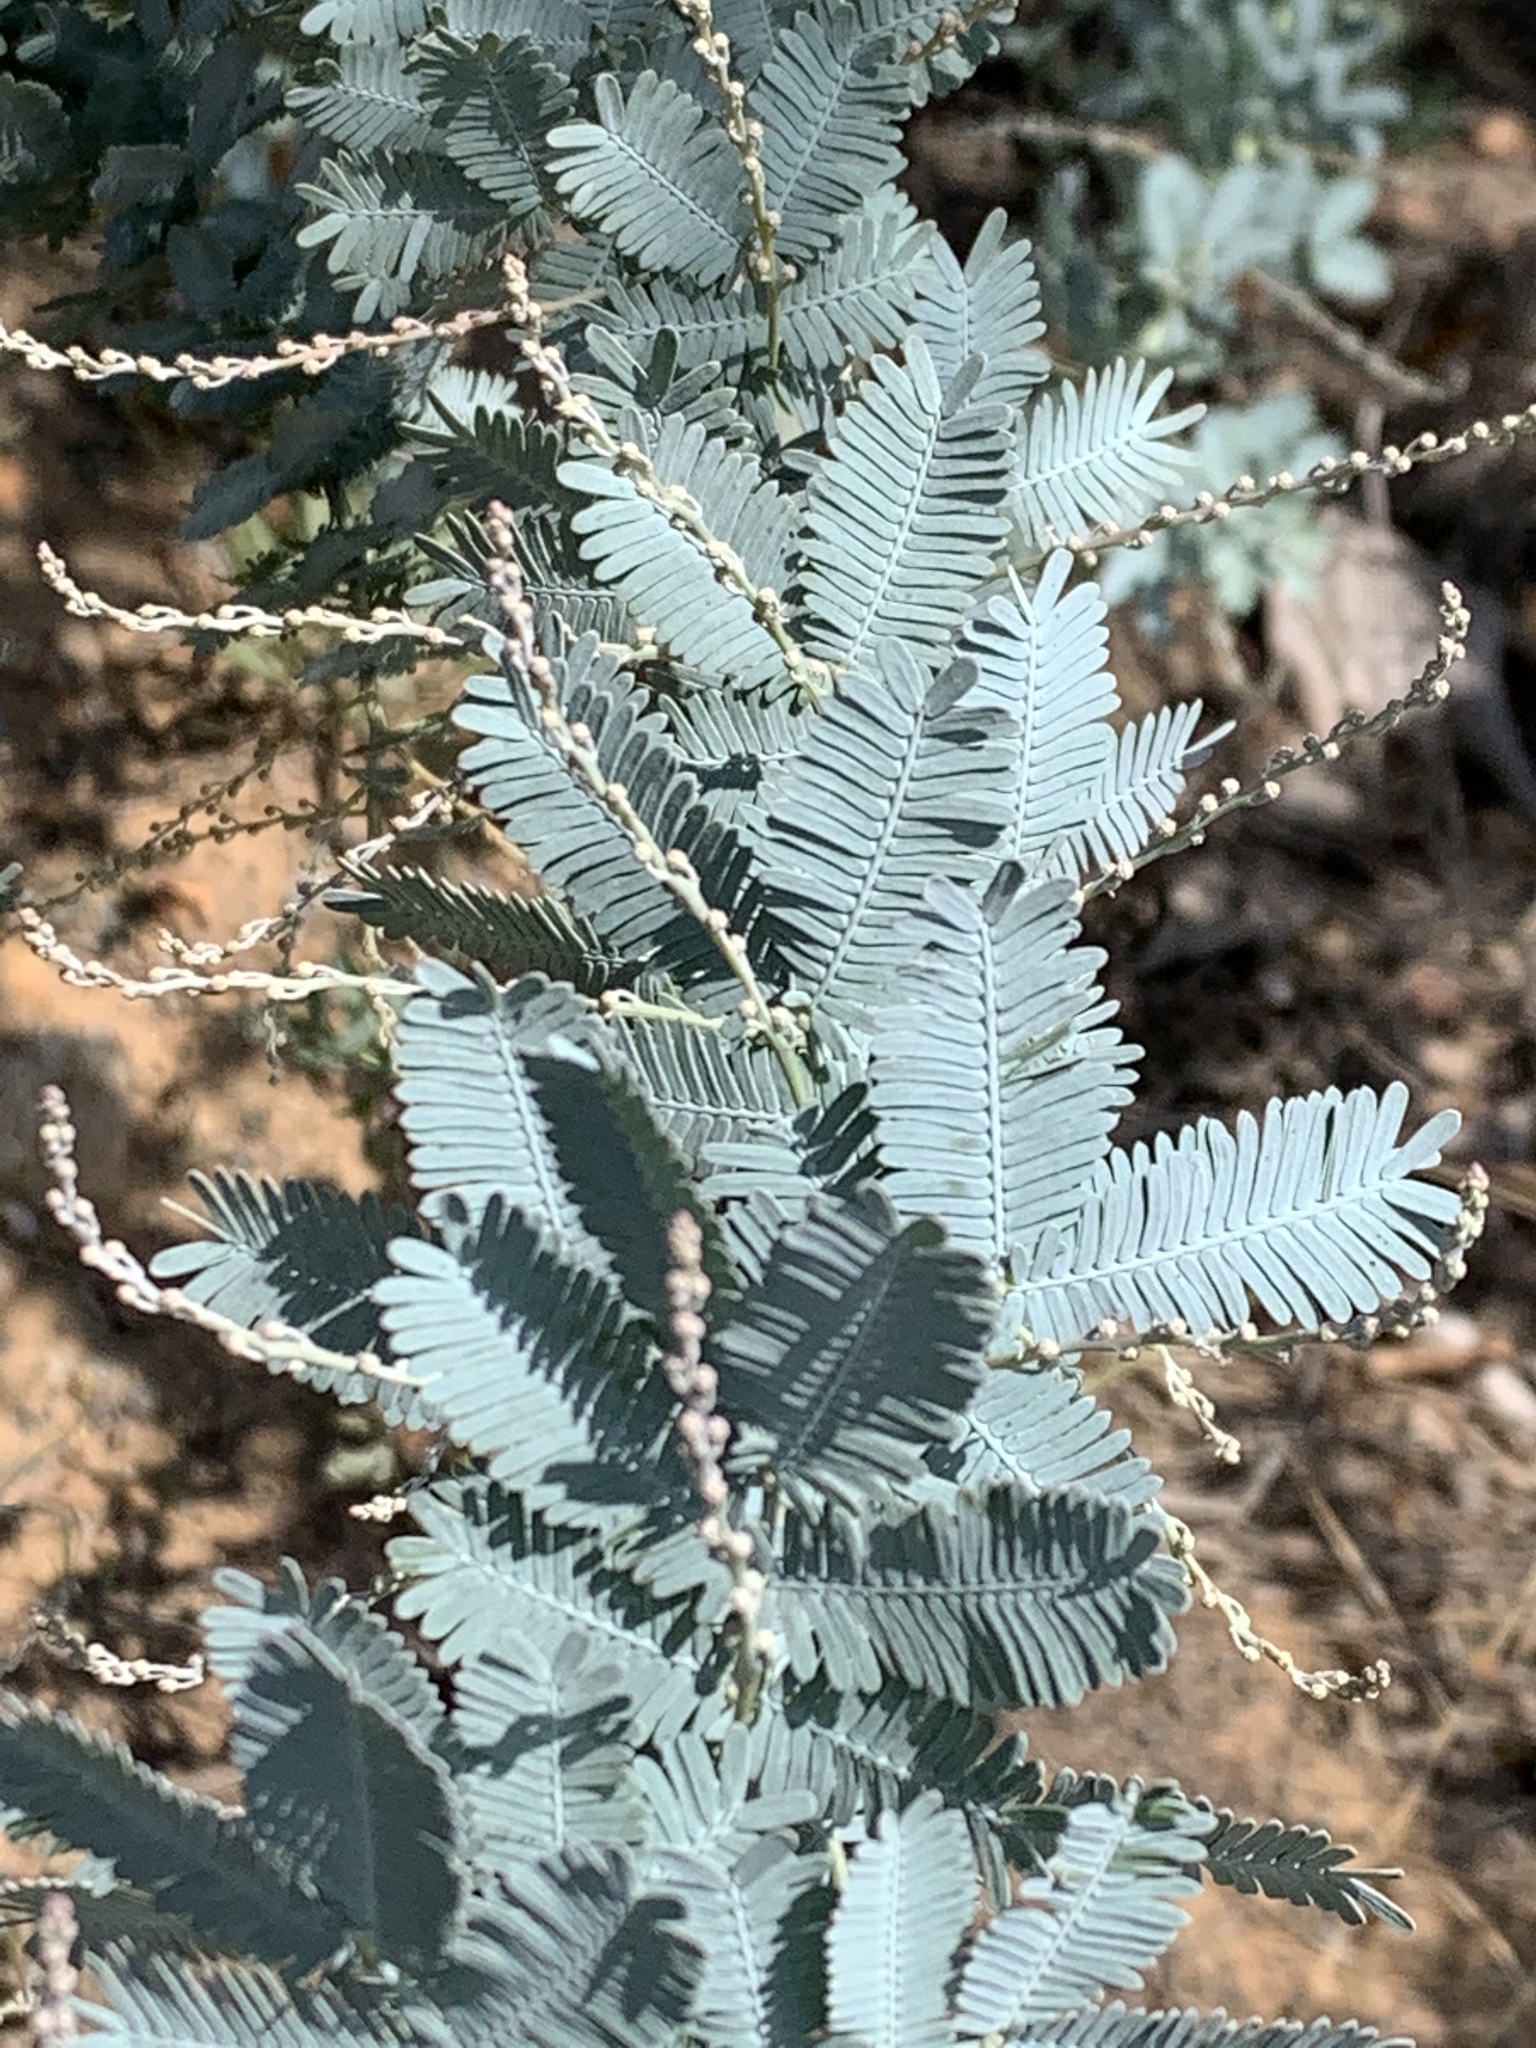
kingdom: Plantae
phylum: Tracheophyta
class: Magnoliopsida
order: Fabales
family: Fabaceae
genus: Acacia
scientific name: Acacia baileyana
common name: Cootamundra wattle
